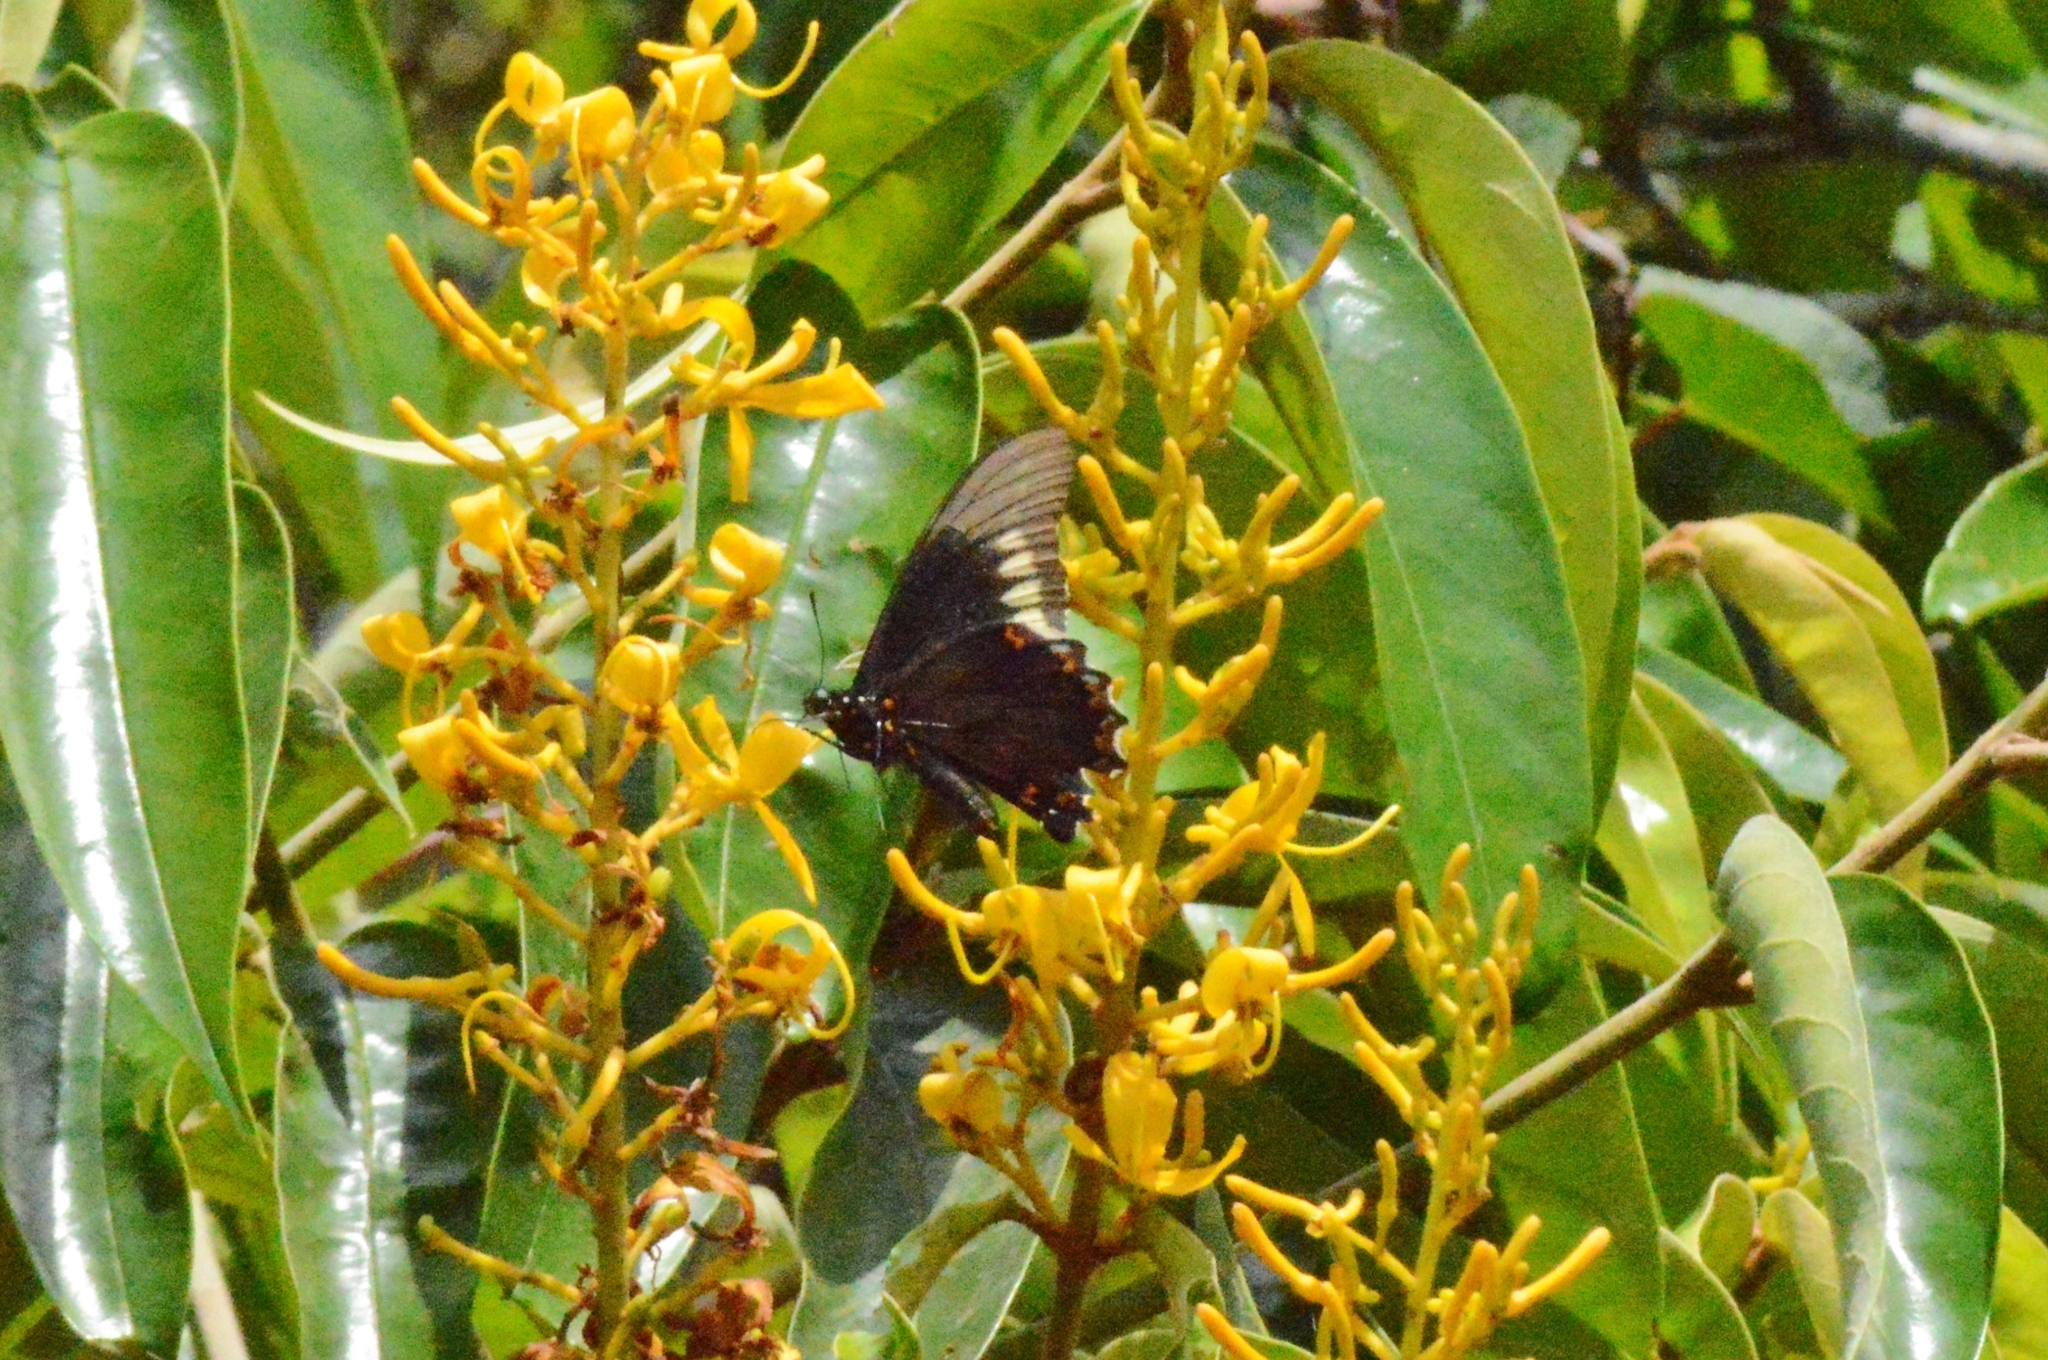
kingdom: Animalia
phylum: Arthropoda
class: Insecta
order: Lepidoptera
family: Papilionidae
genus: Battus
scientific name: Battus polydamas
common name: Polydamas swallowtail
